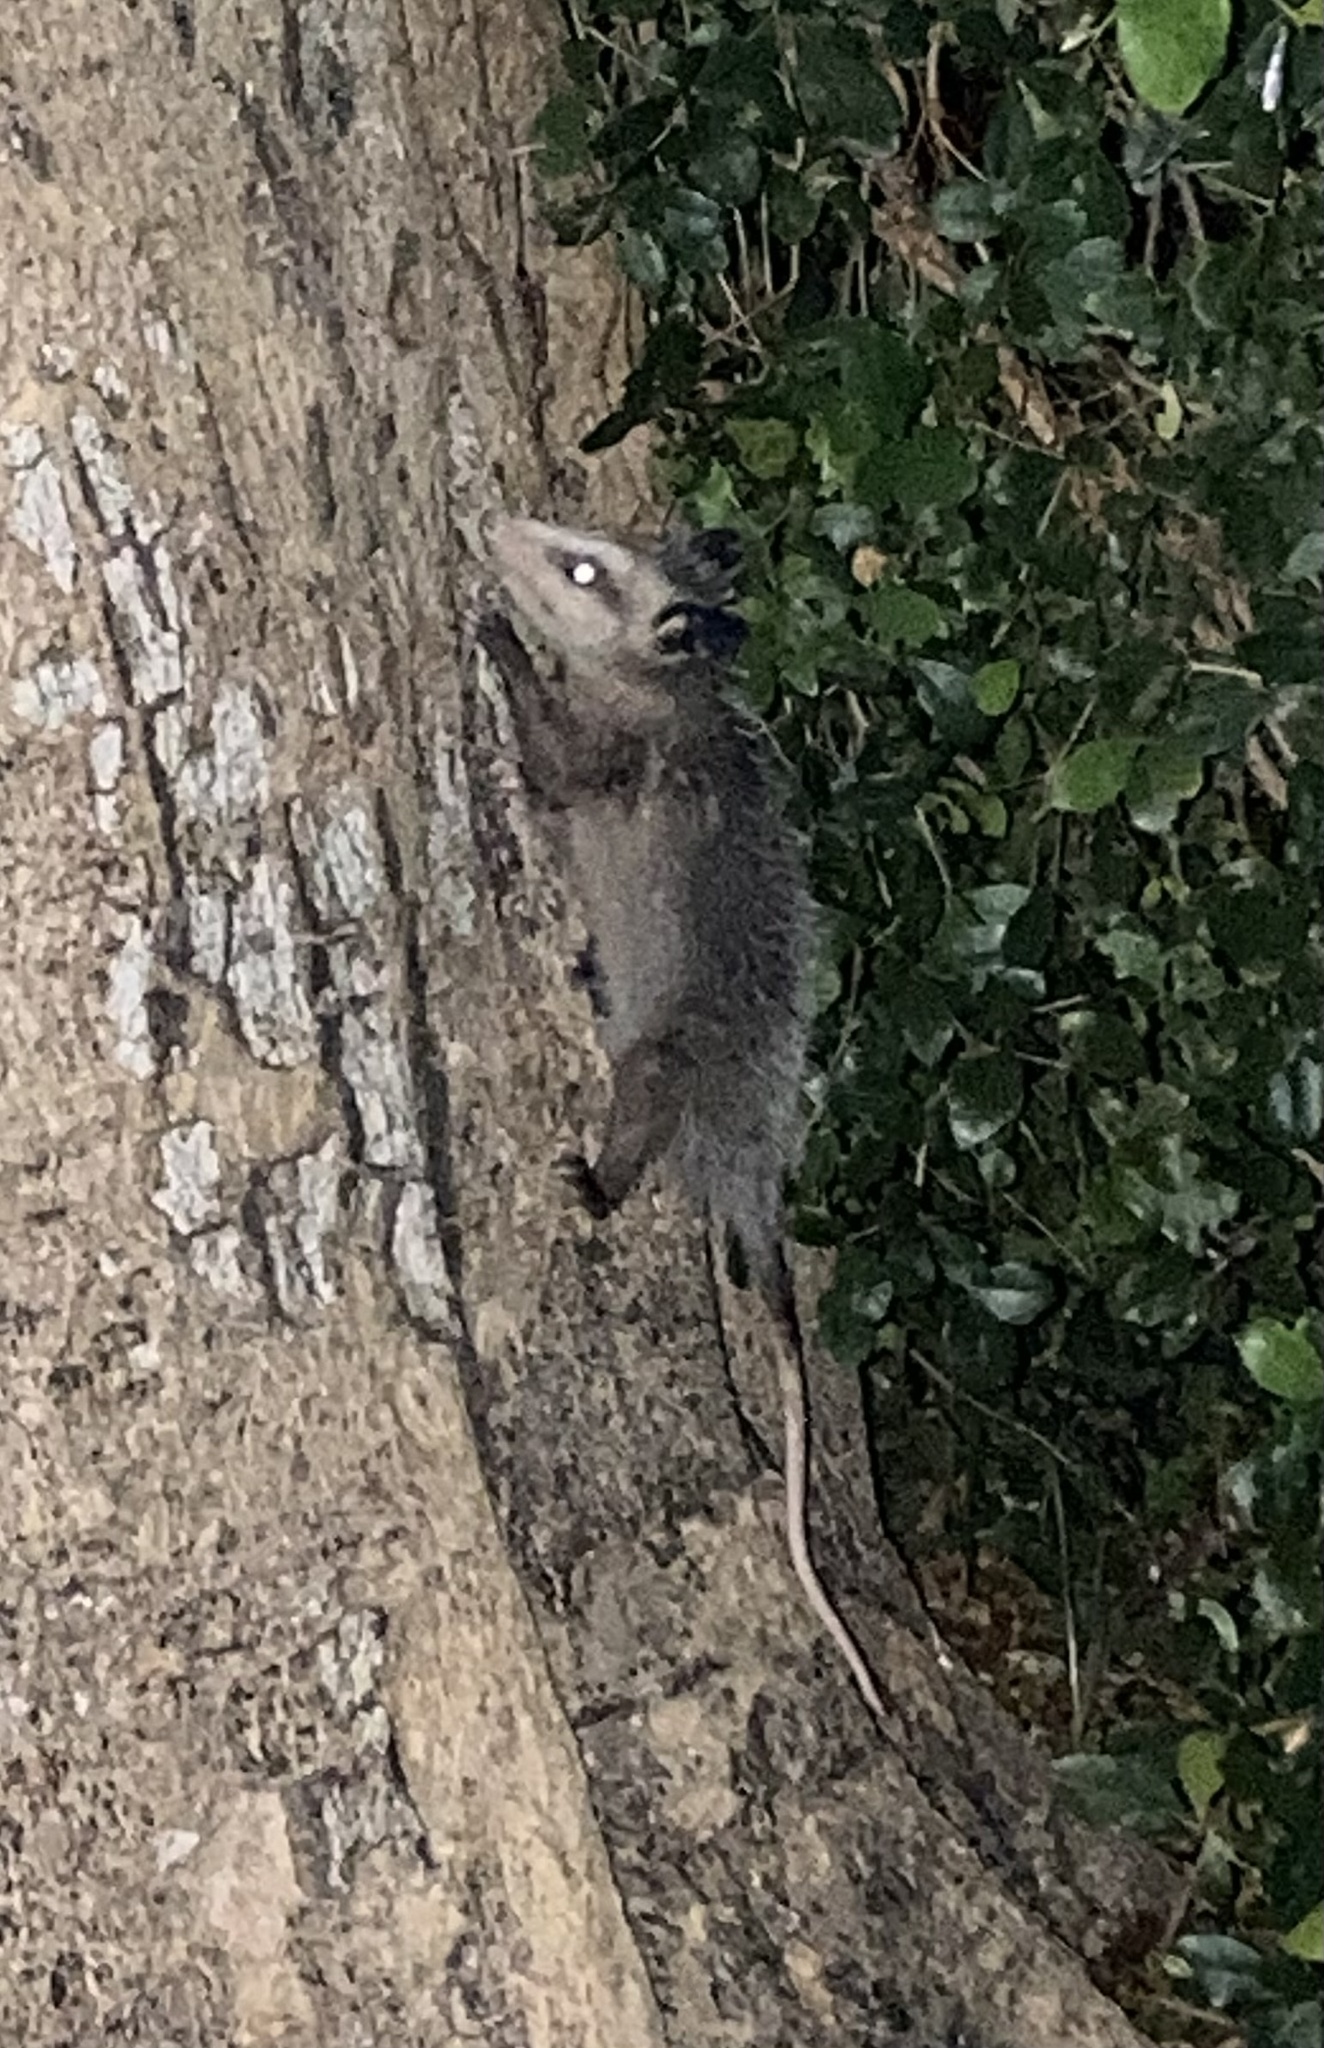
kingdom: Animalia
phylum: Chordata
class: Mammalia
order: Didelphimorphia
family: Didelphidae
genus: Didelphis
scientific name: Didelphis virginiana
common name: Virginia opossum
